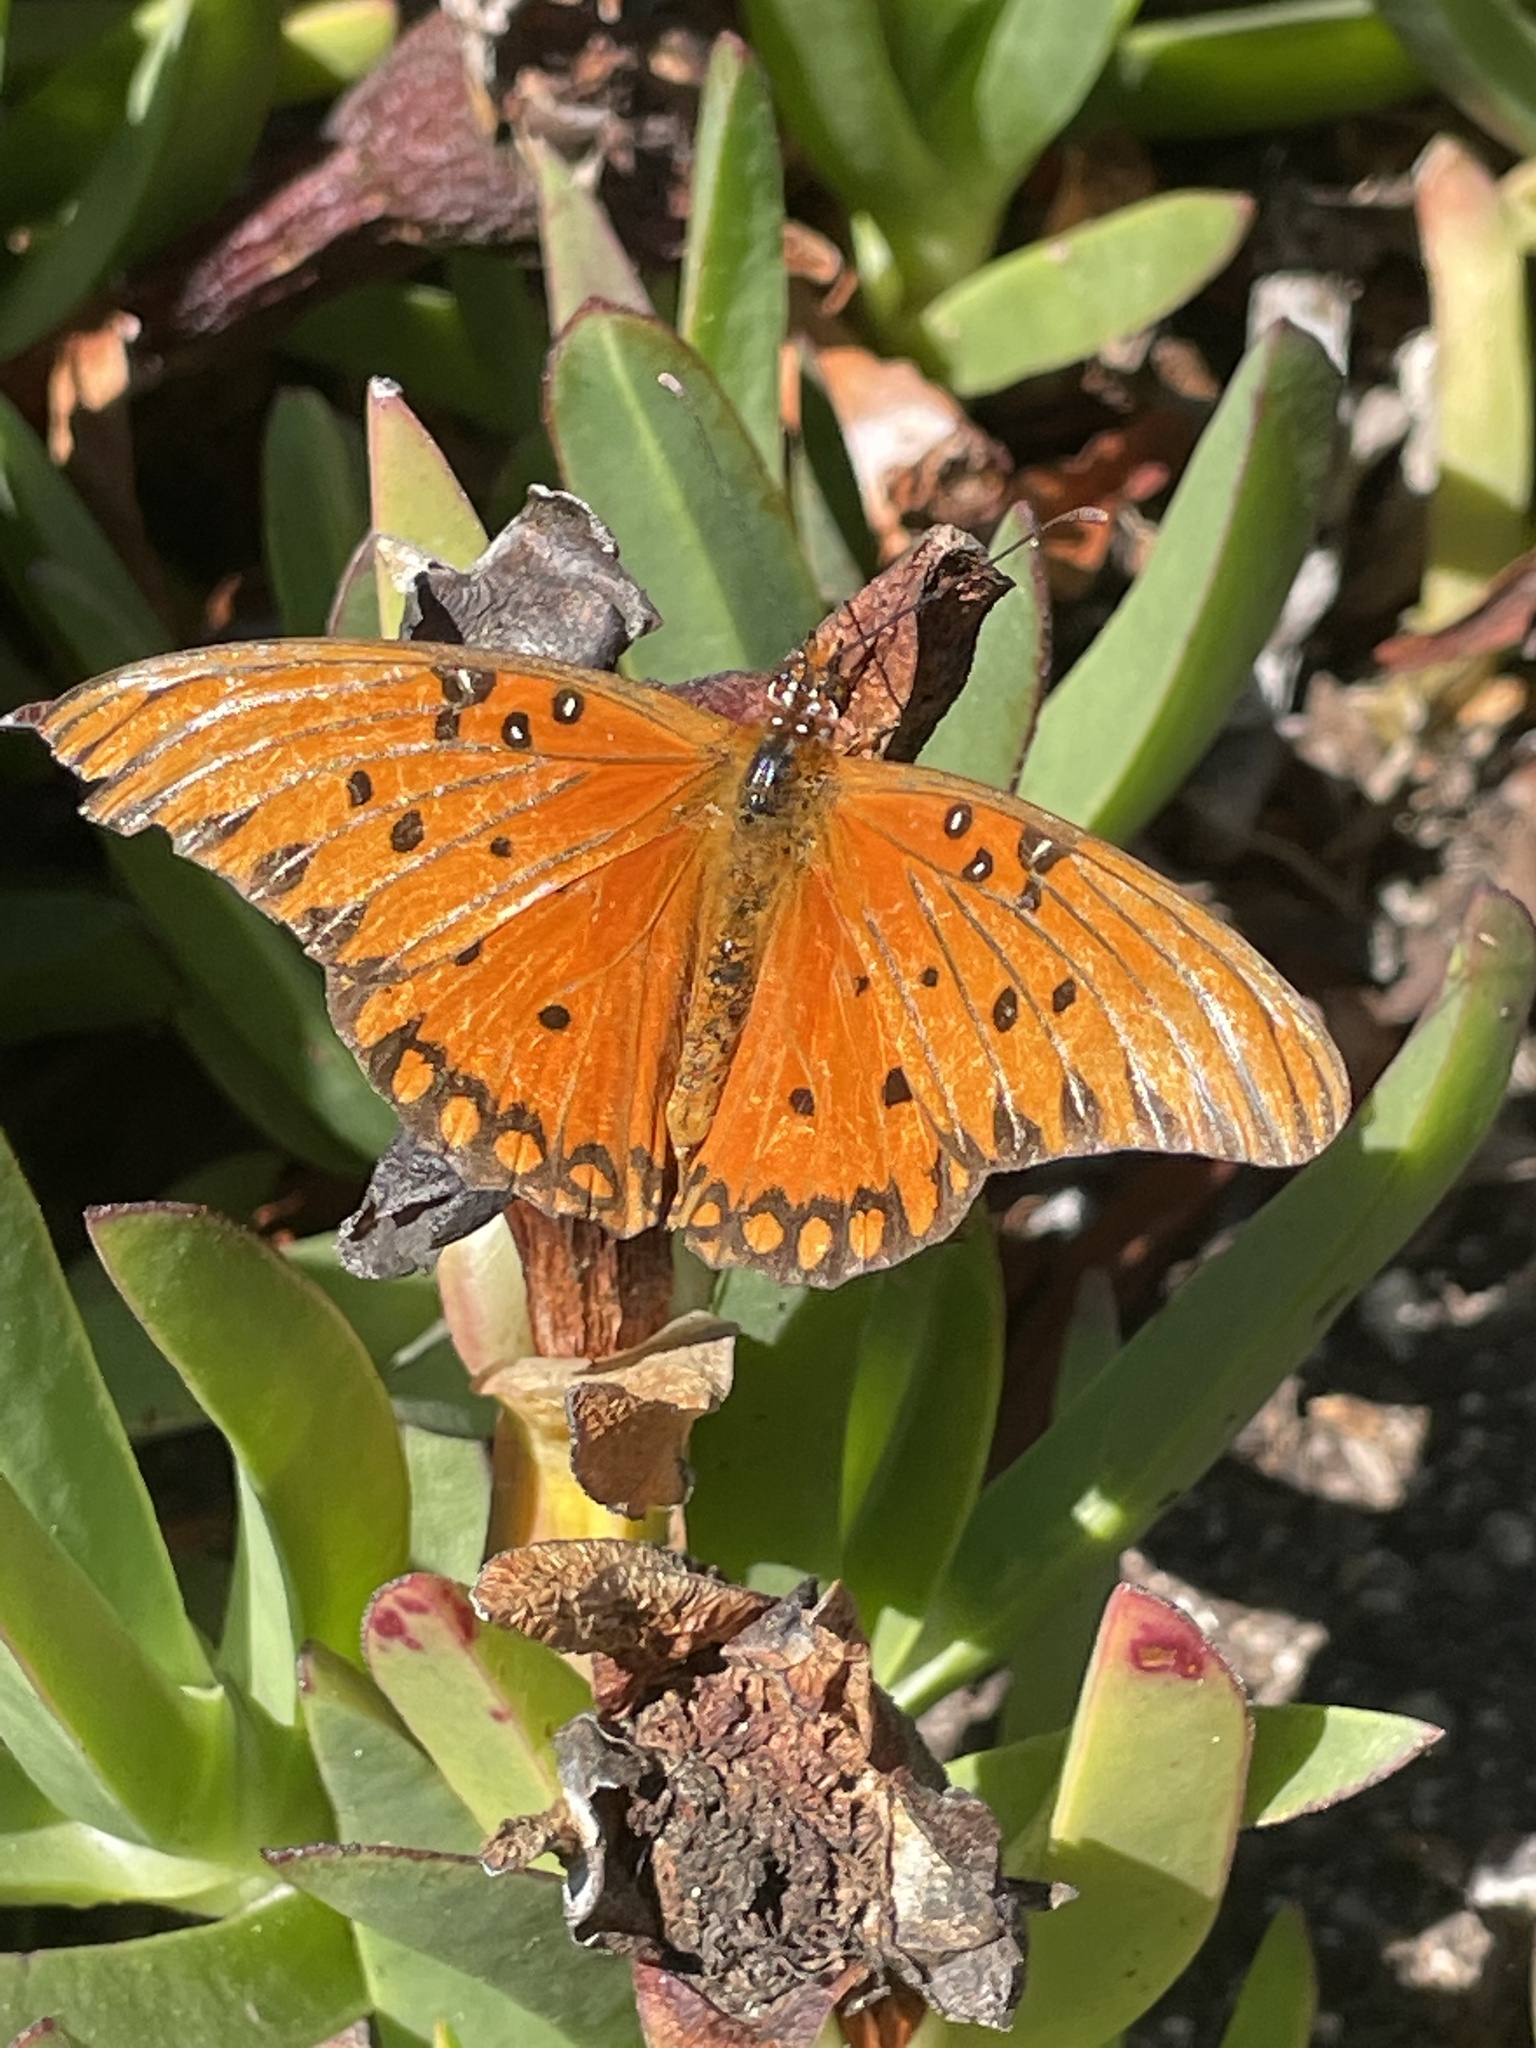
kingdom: Animalia
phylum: Arthropoda
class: Insecta
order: Lepidoptera
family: Nymphalidae
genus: Dione
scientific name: Dione vanillae
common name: Gulf fritillary
